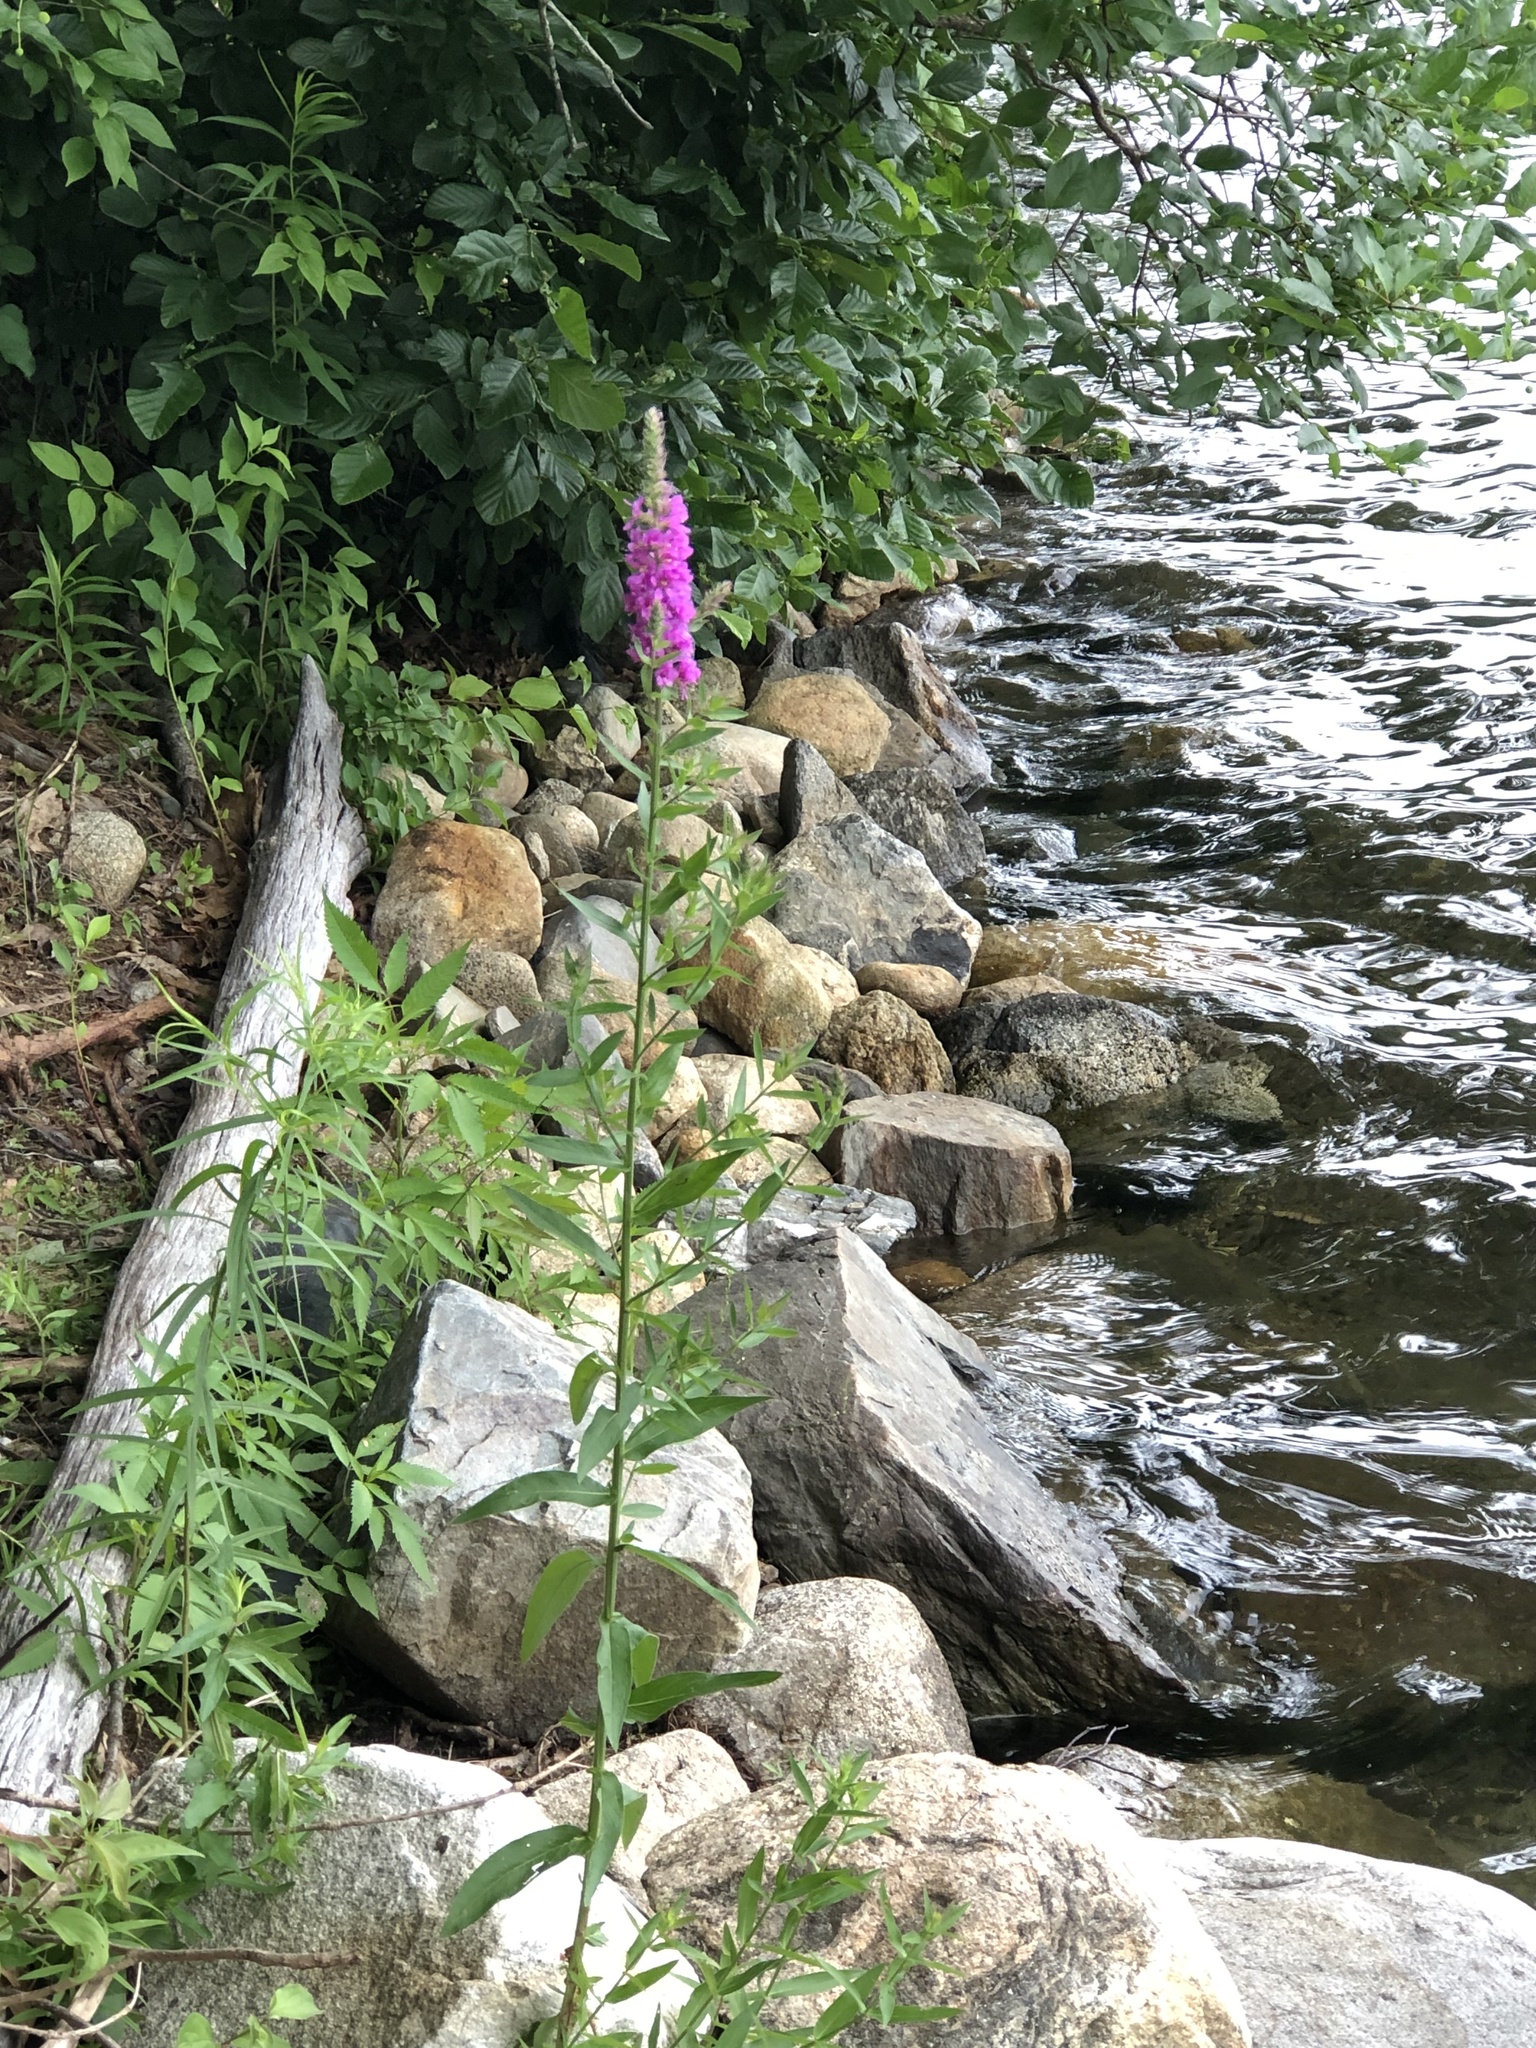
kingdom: Plantae
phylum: Tracheophyta
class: Magnoliopsida
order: Myrtales
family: Lythraceae
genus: Lythrum
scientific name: Lythrum salicaria
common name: Purple loosestrife
